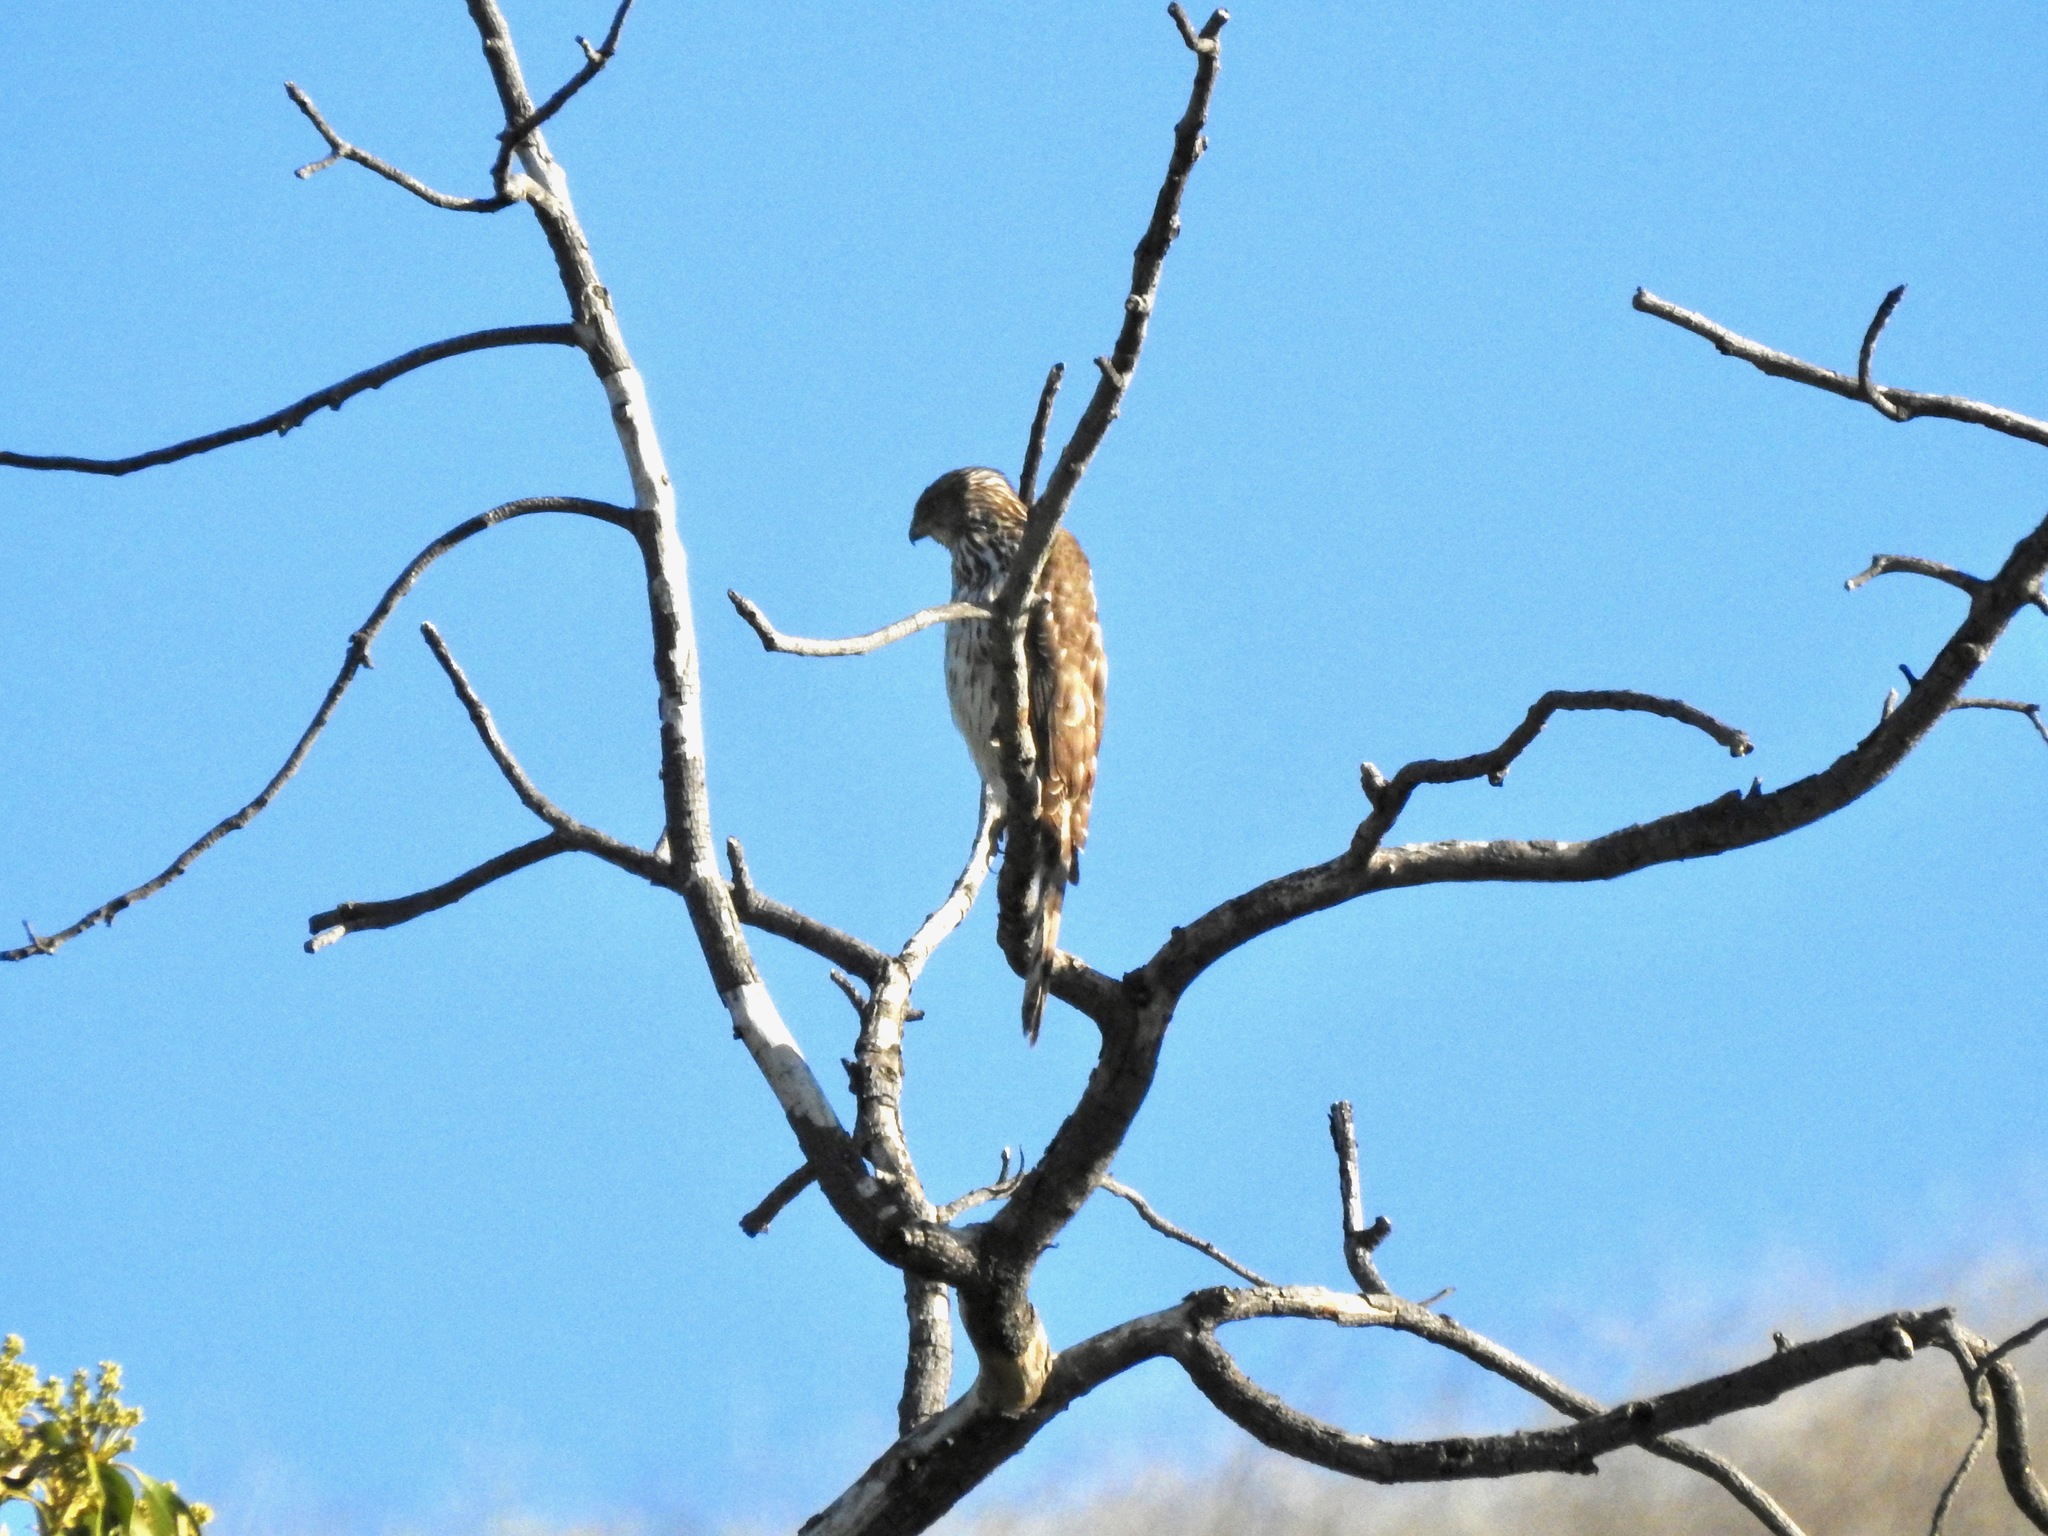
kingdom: Animalia
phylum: Chordata
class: Aves
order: Accipitriformes
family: Accipitridae
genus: Accipiter
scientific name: Accipiter cooperii
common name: Cooper's hawk
